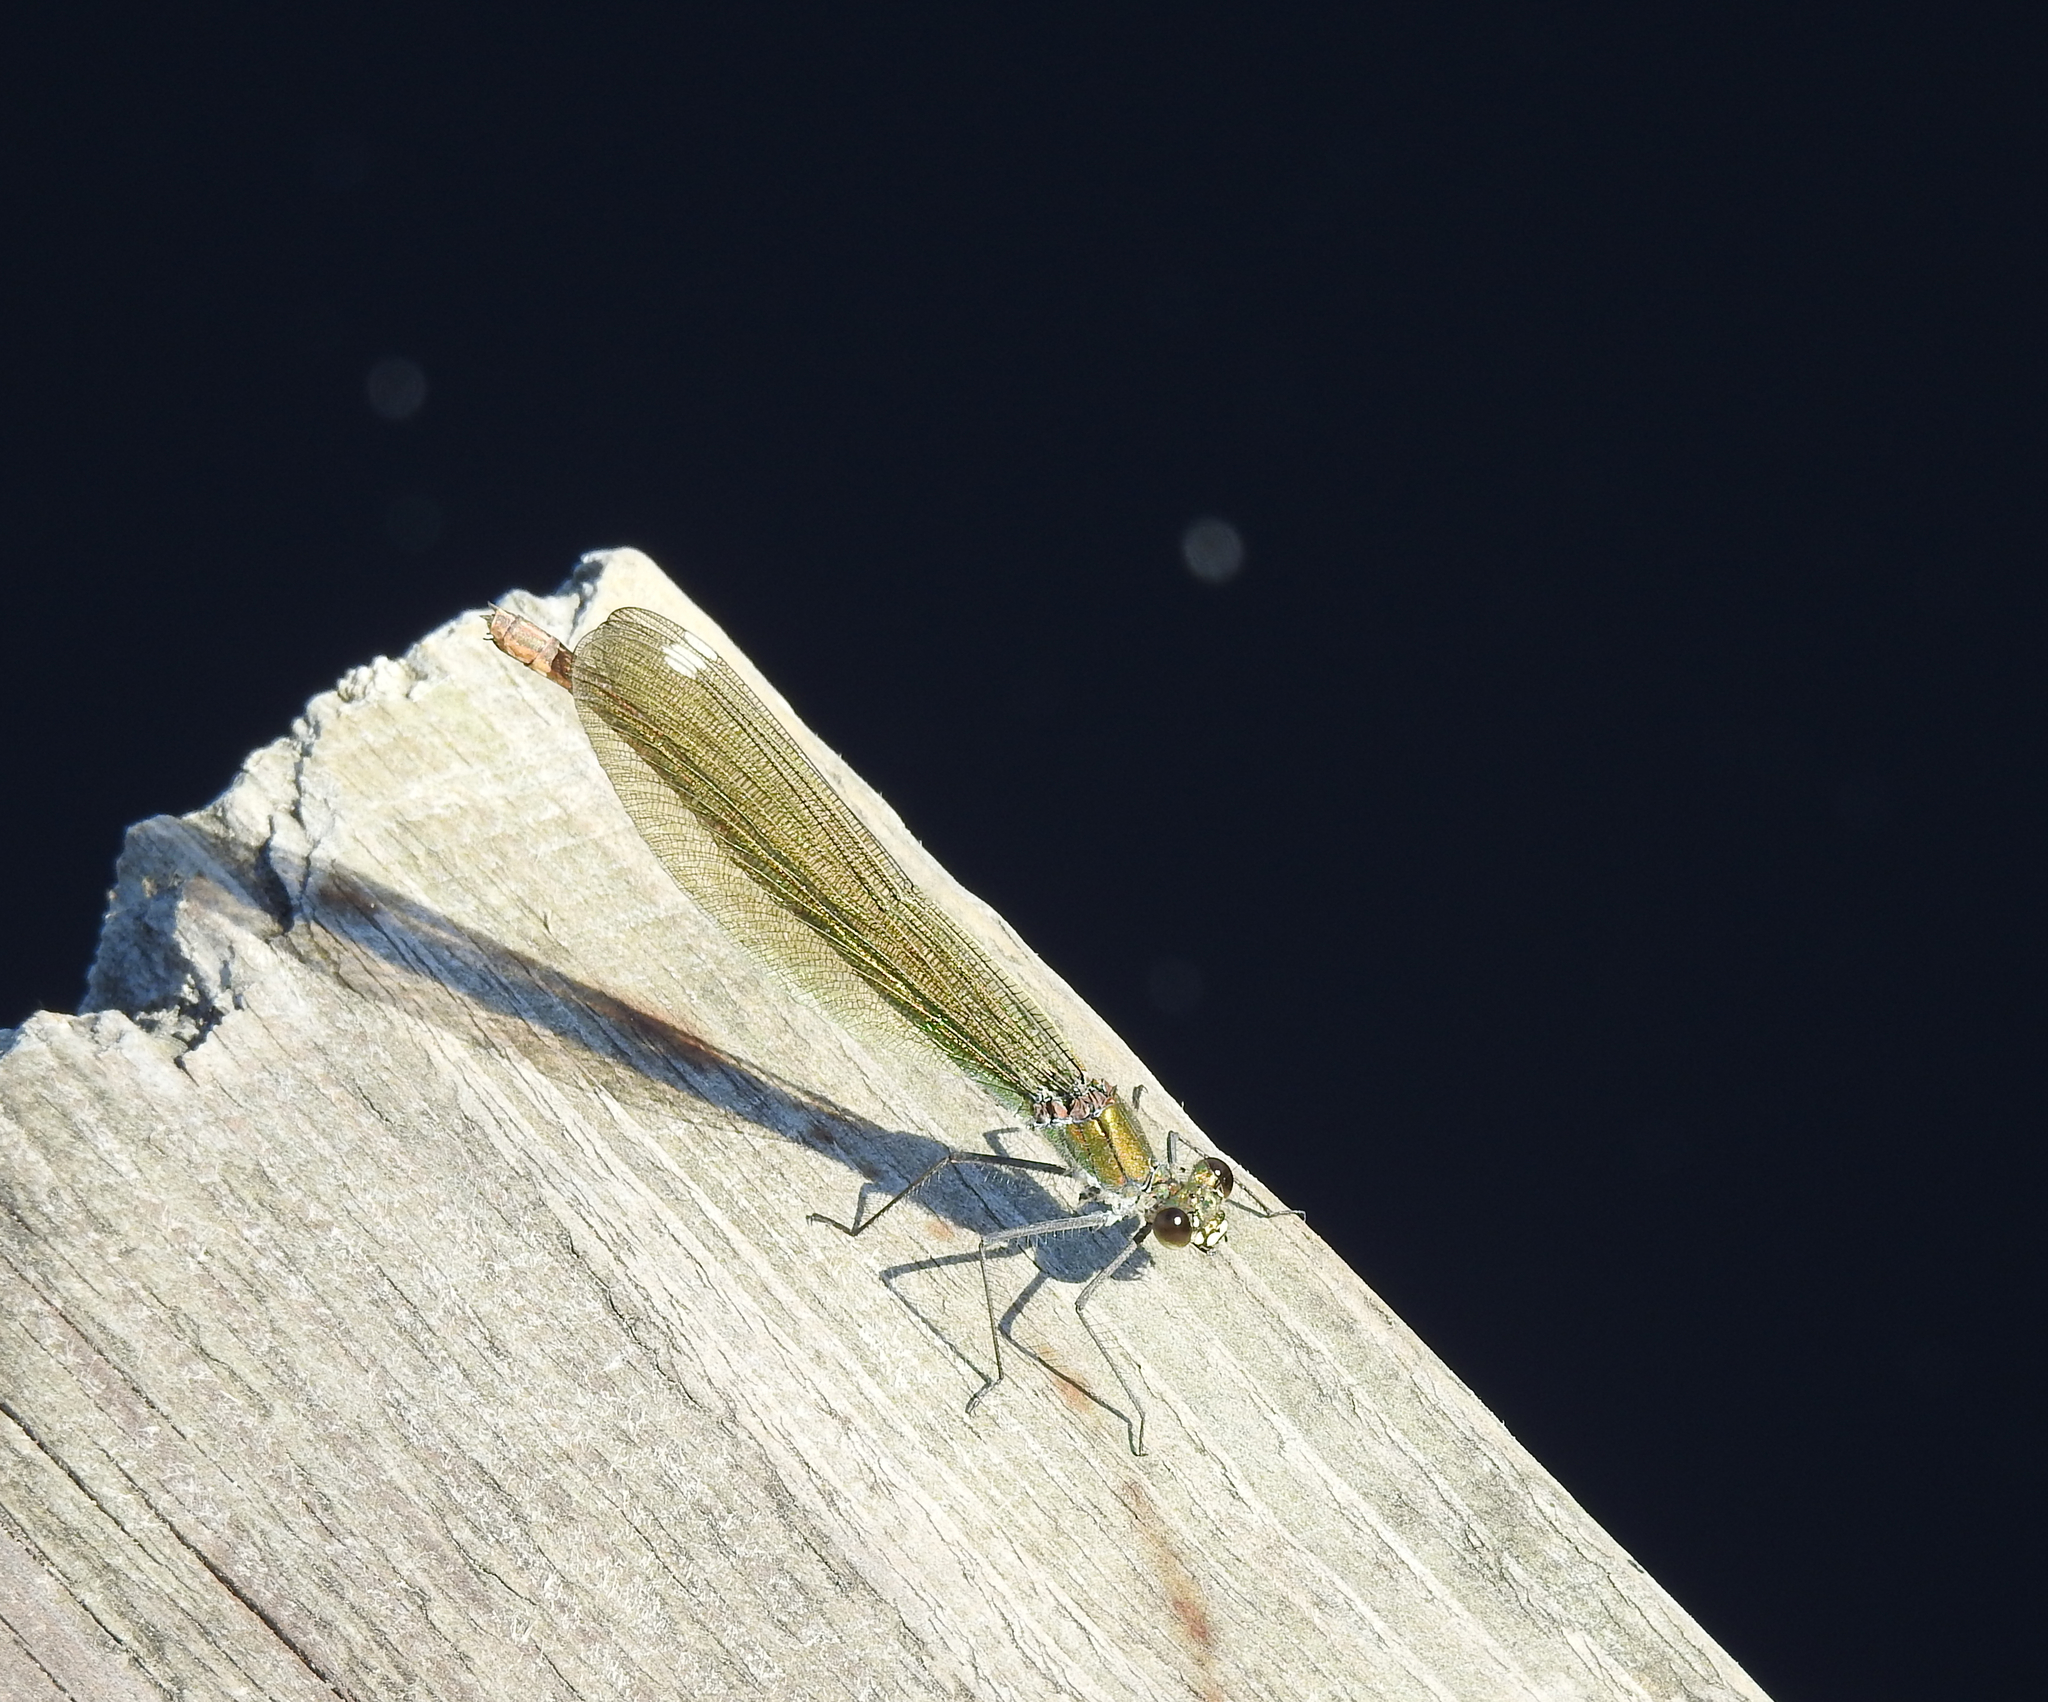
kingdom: Animalia
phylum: Arthropoda
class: Insecta
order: Odonata
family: Calopterygidae
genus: Calopteryx
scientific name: Calopteryx splendens
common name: Banded demoiselle
